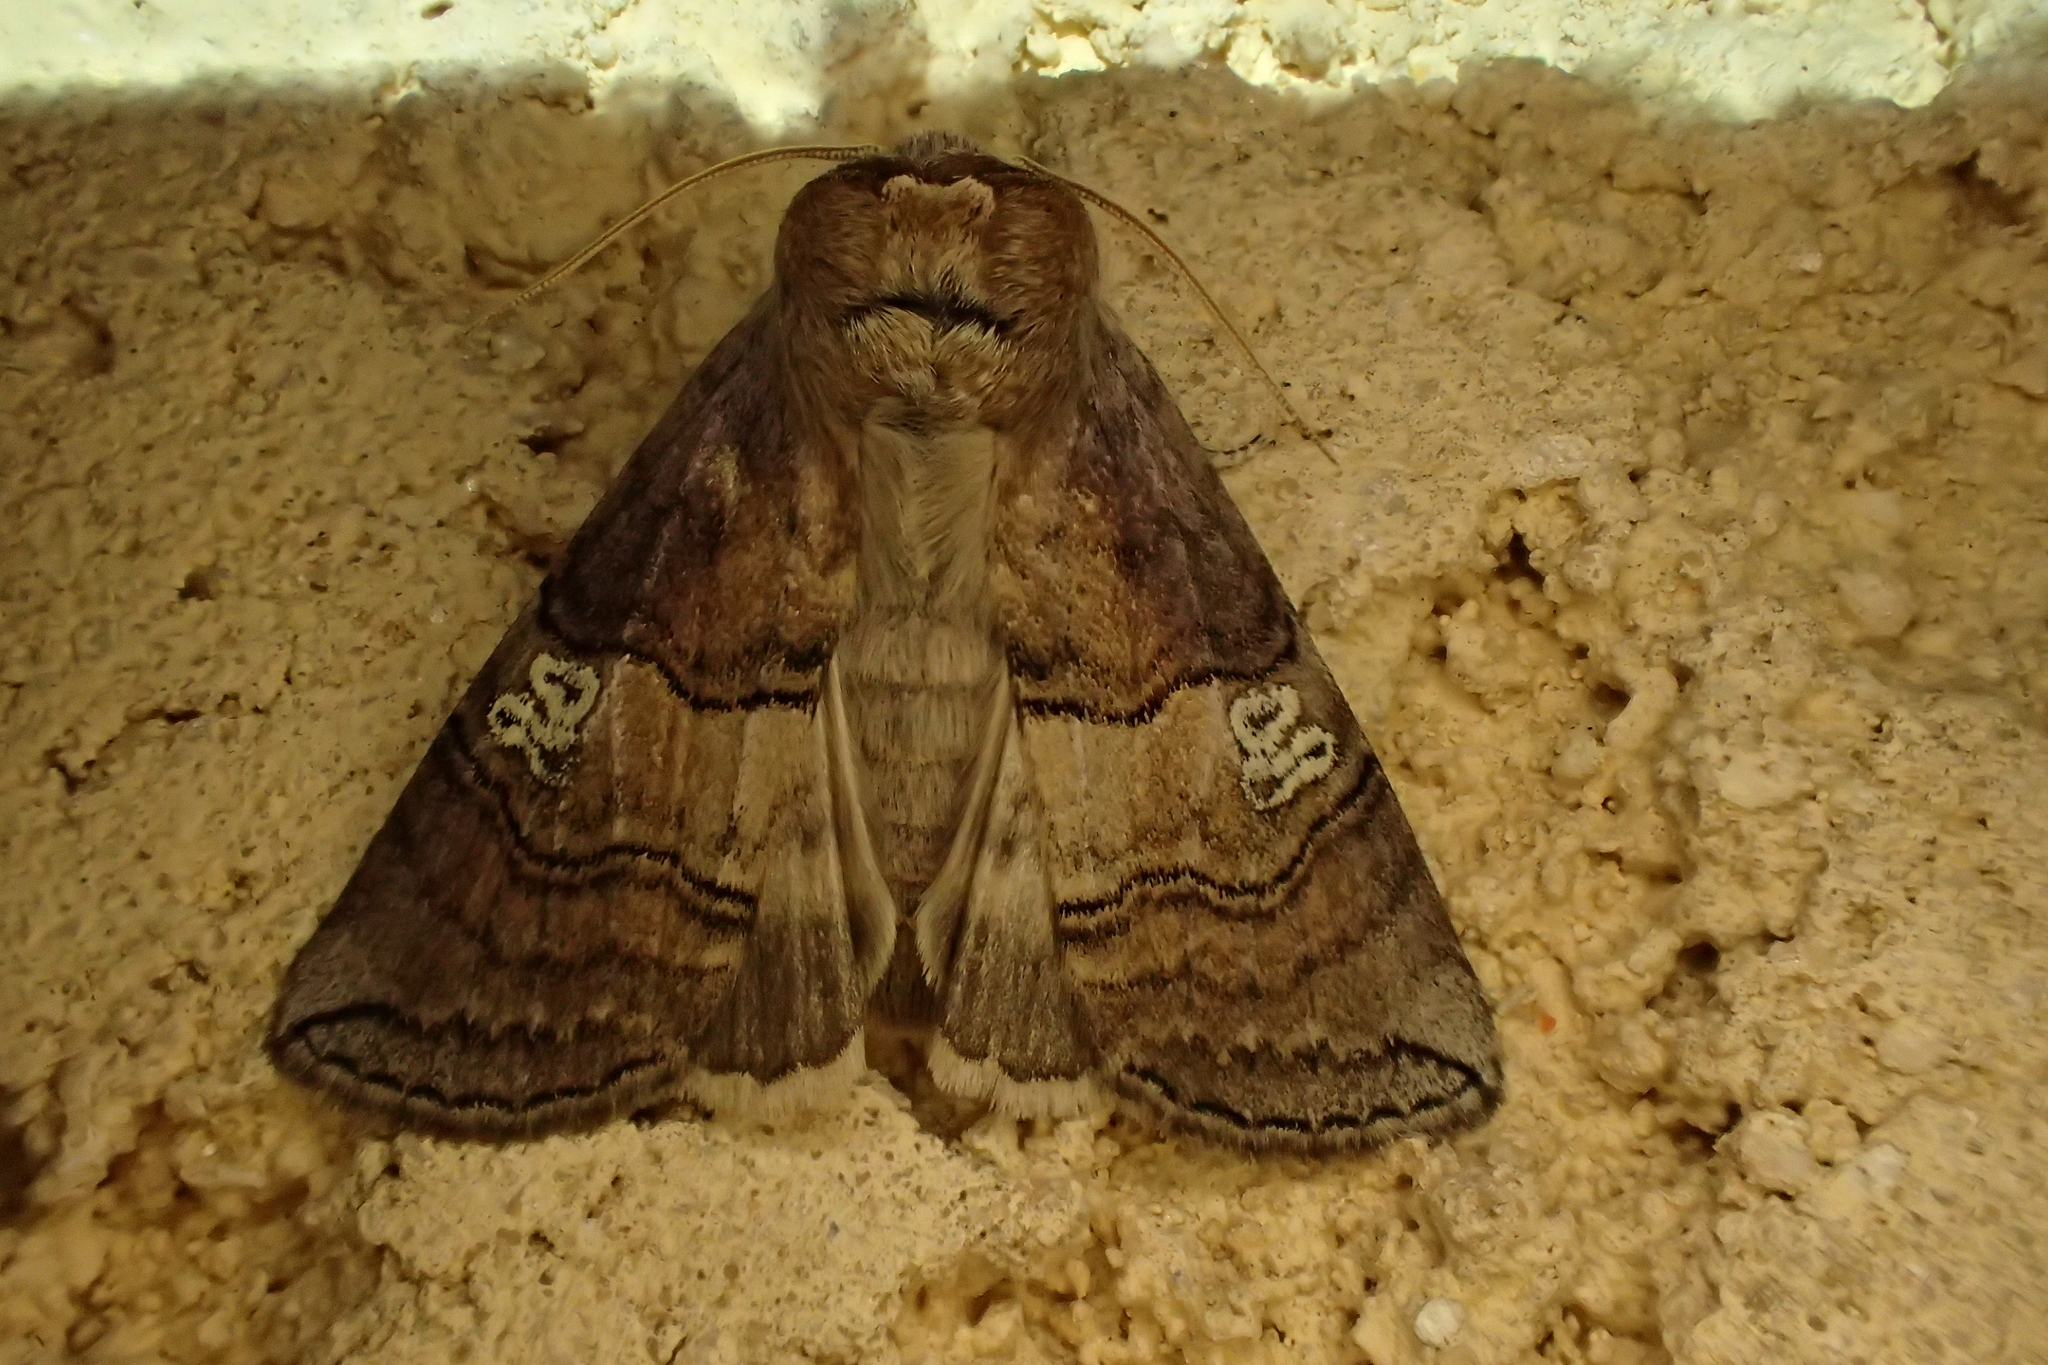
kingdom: Animalia
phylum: Arthropoda
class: Insecta
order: Lepidoptera
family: Drepanidae
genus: Tethea
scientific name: Tethea ocularis
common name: Figure of eighty
